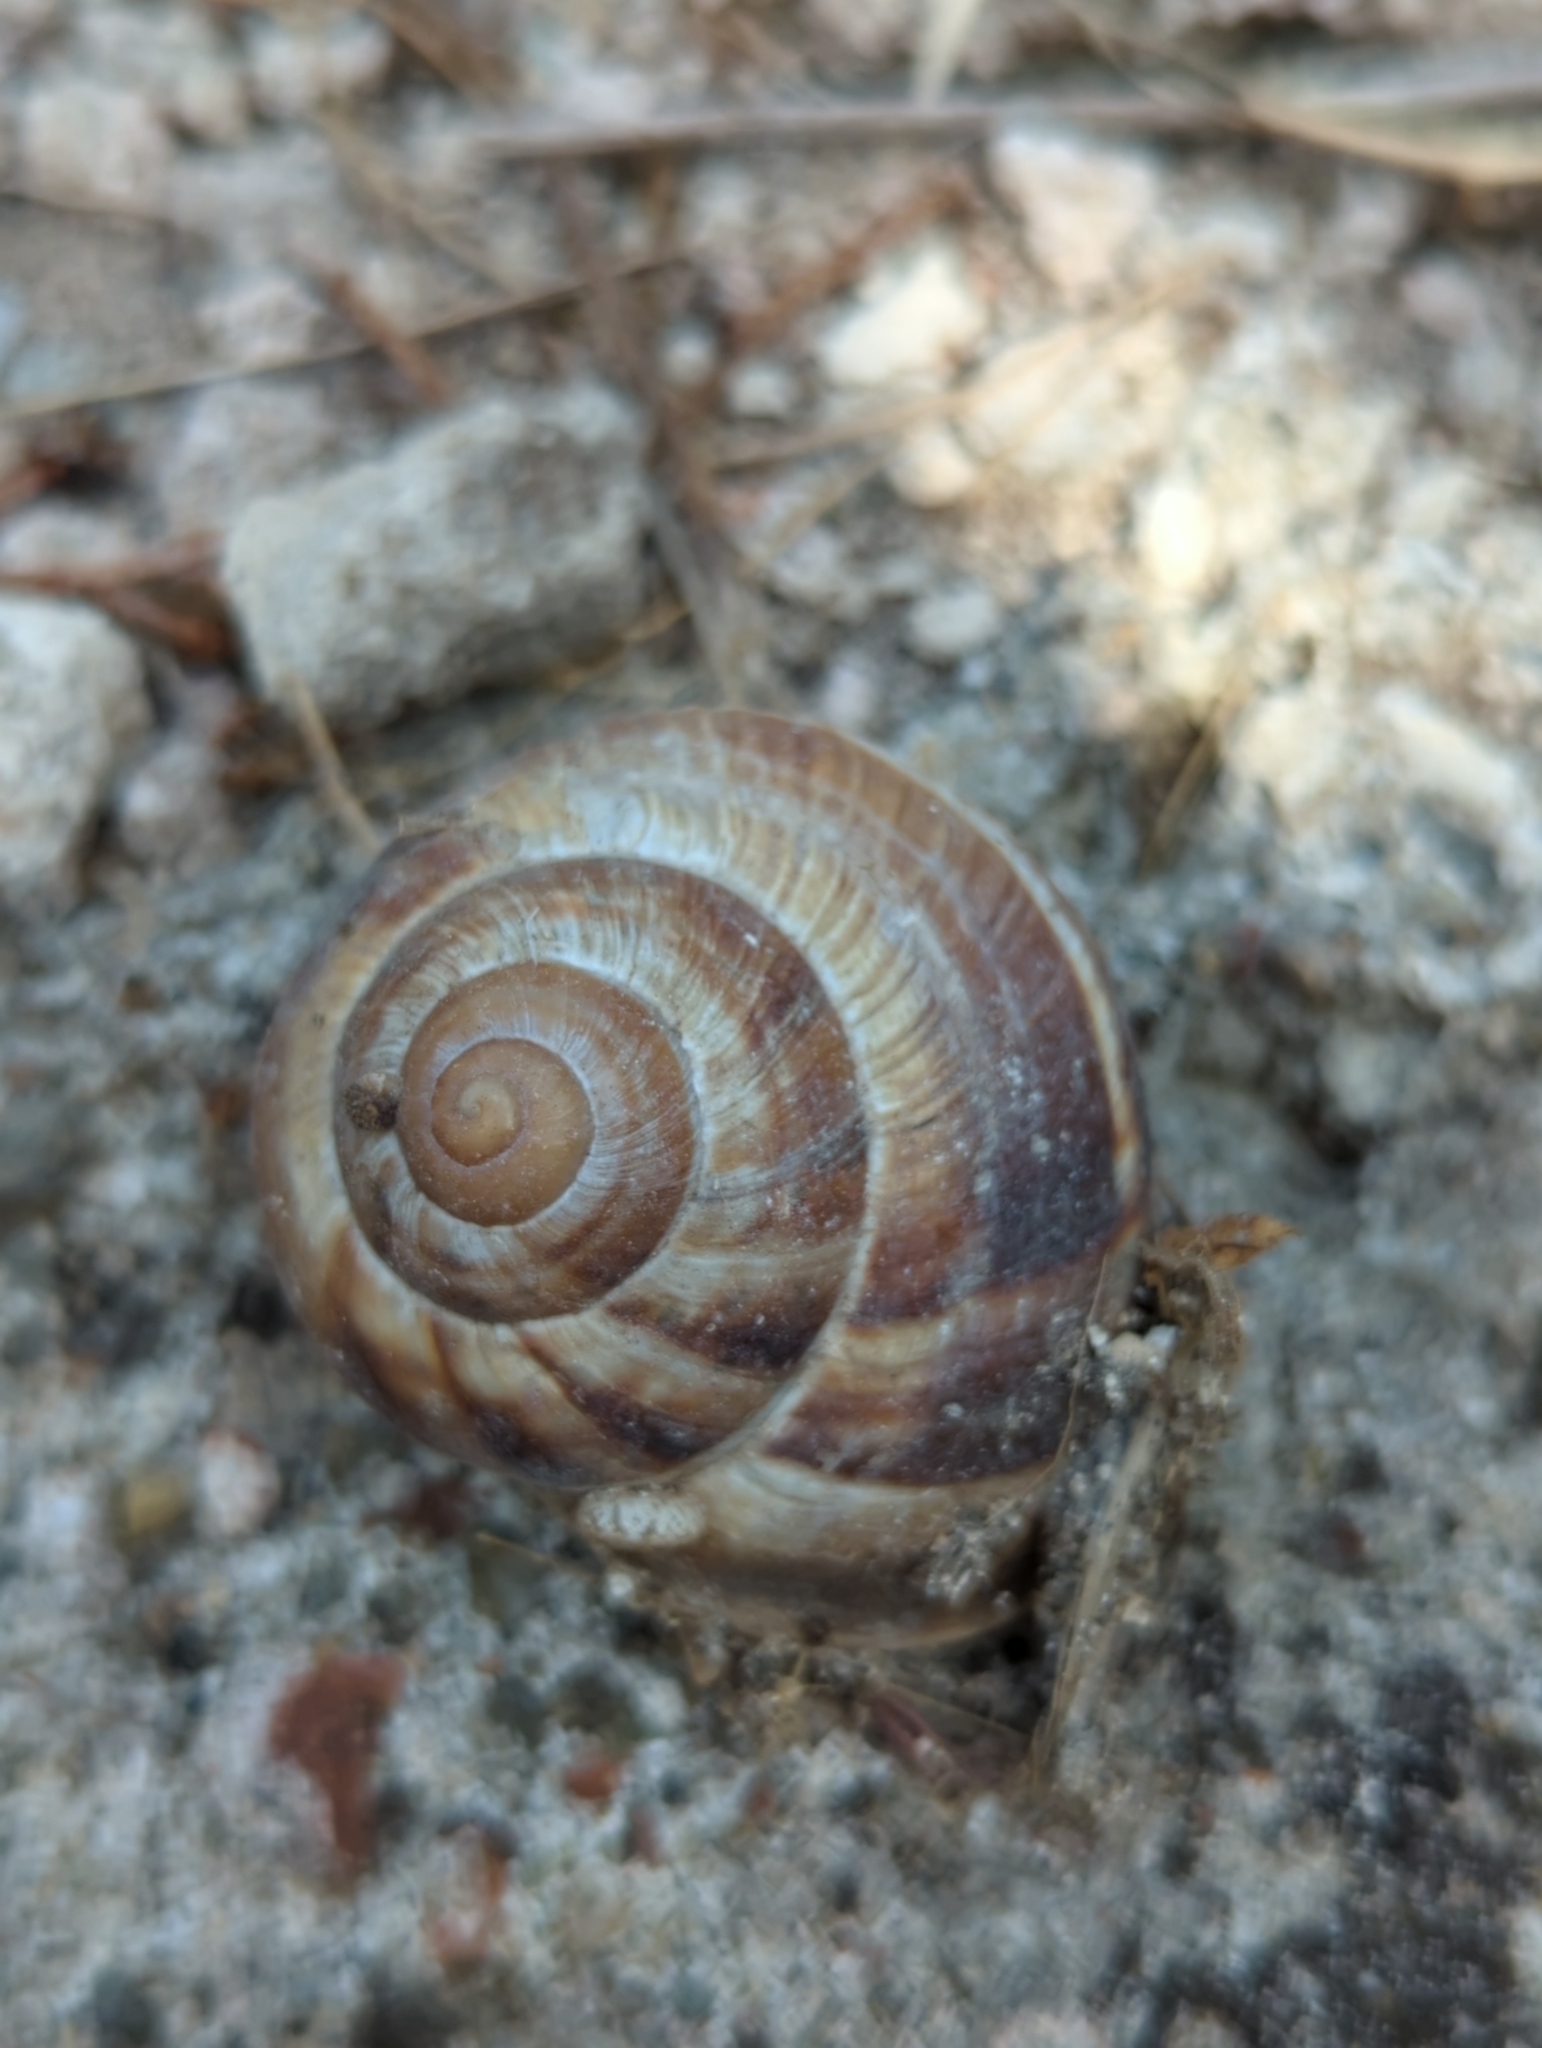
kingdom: Animalia
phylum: Mollusca
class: Gastropoda
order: Stylommatophora
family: Helicidae
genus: Helix
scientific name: Helix lucorum
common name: Turkish snail
